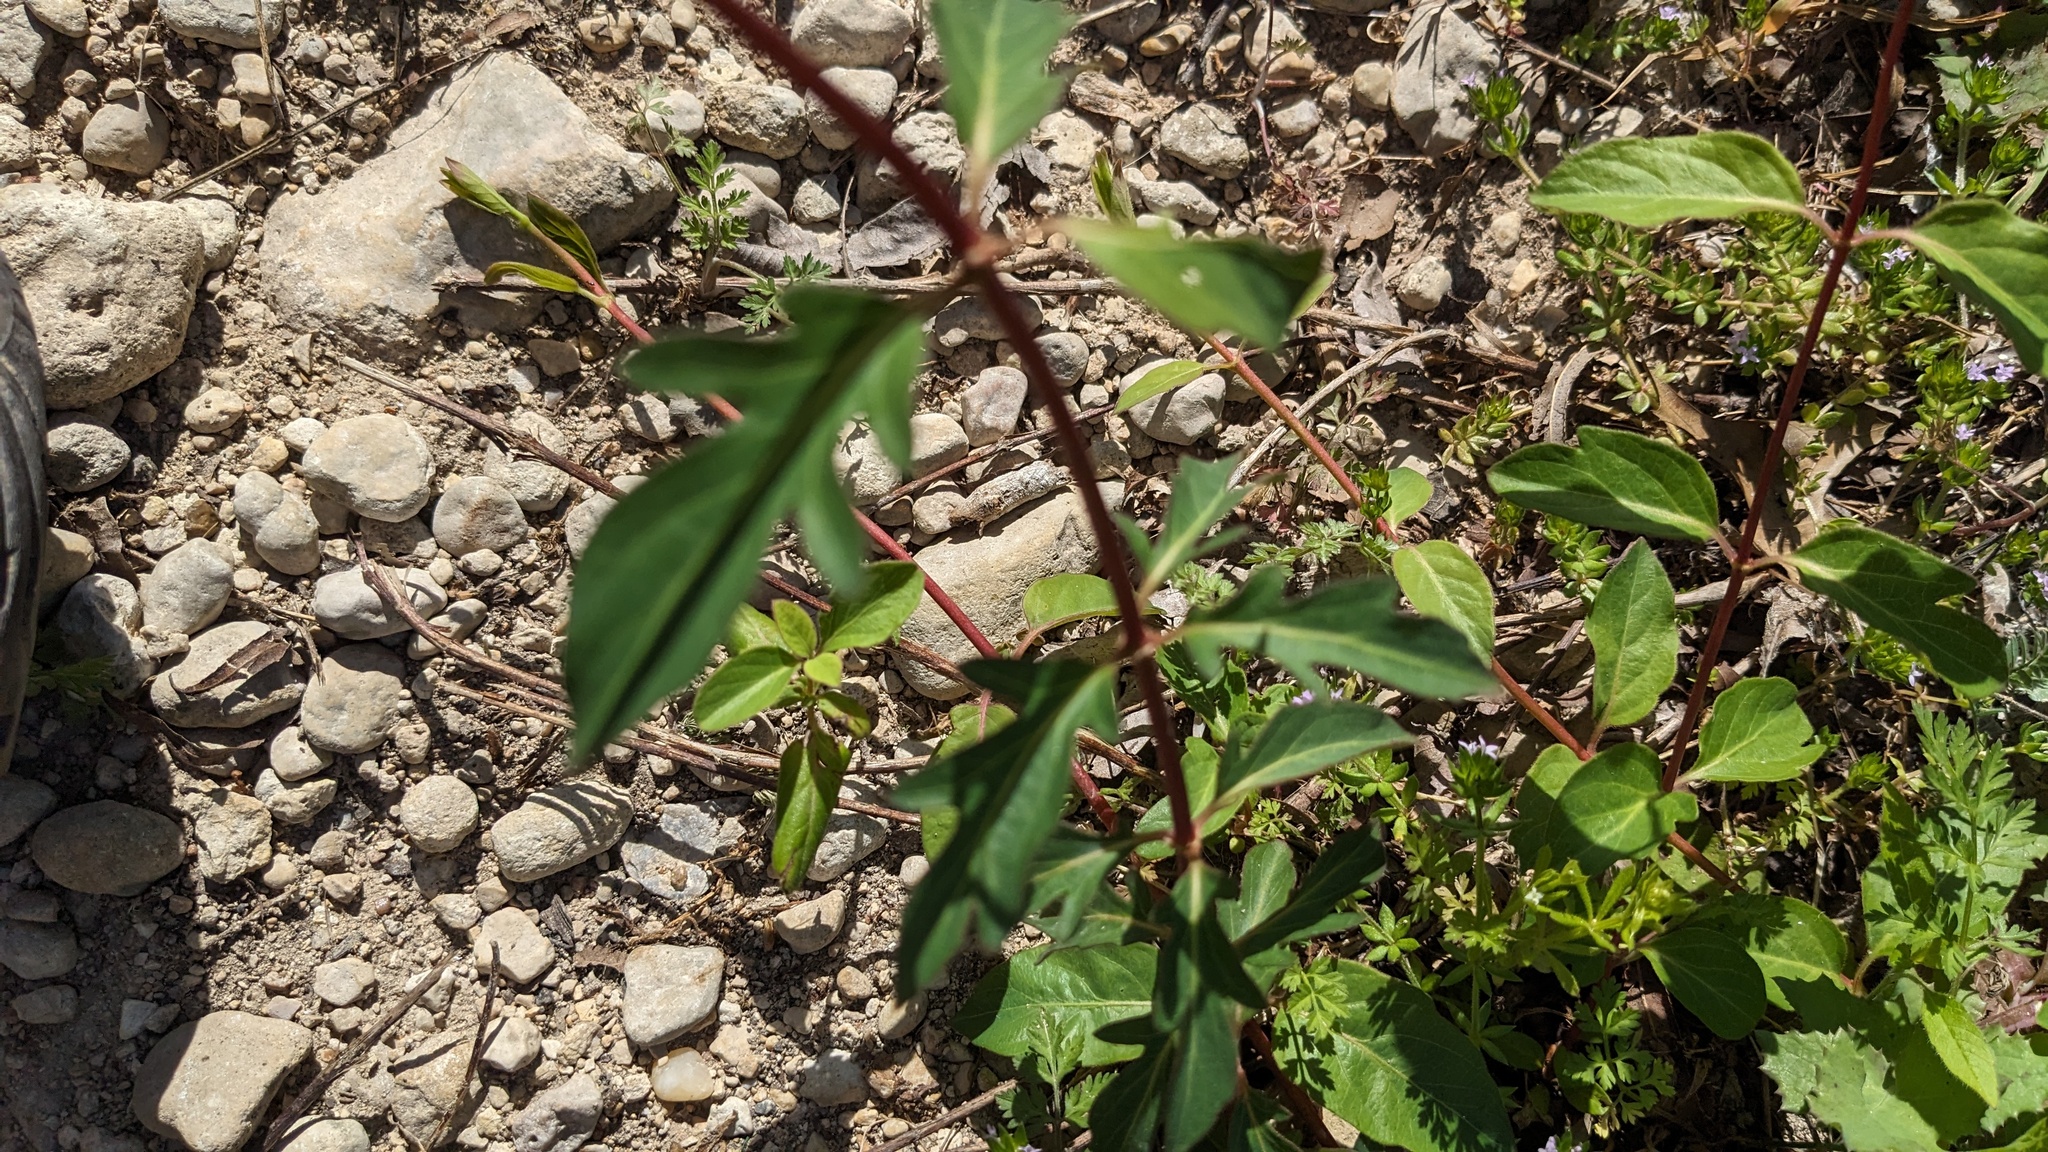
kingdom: Plantae
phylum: Tracheophyta
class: Magnoliopsida
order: Dipsacales
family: Caprifoliaceae
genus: Lonicera
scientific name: Lonicera japonica
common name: Japanese honeysuckle
